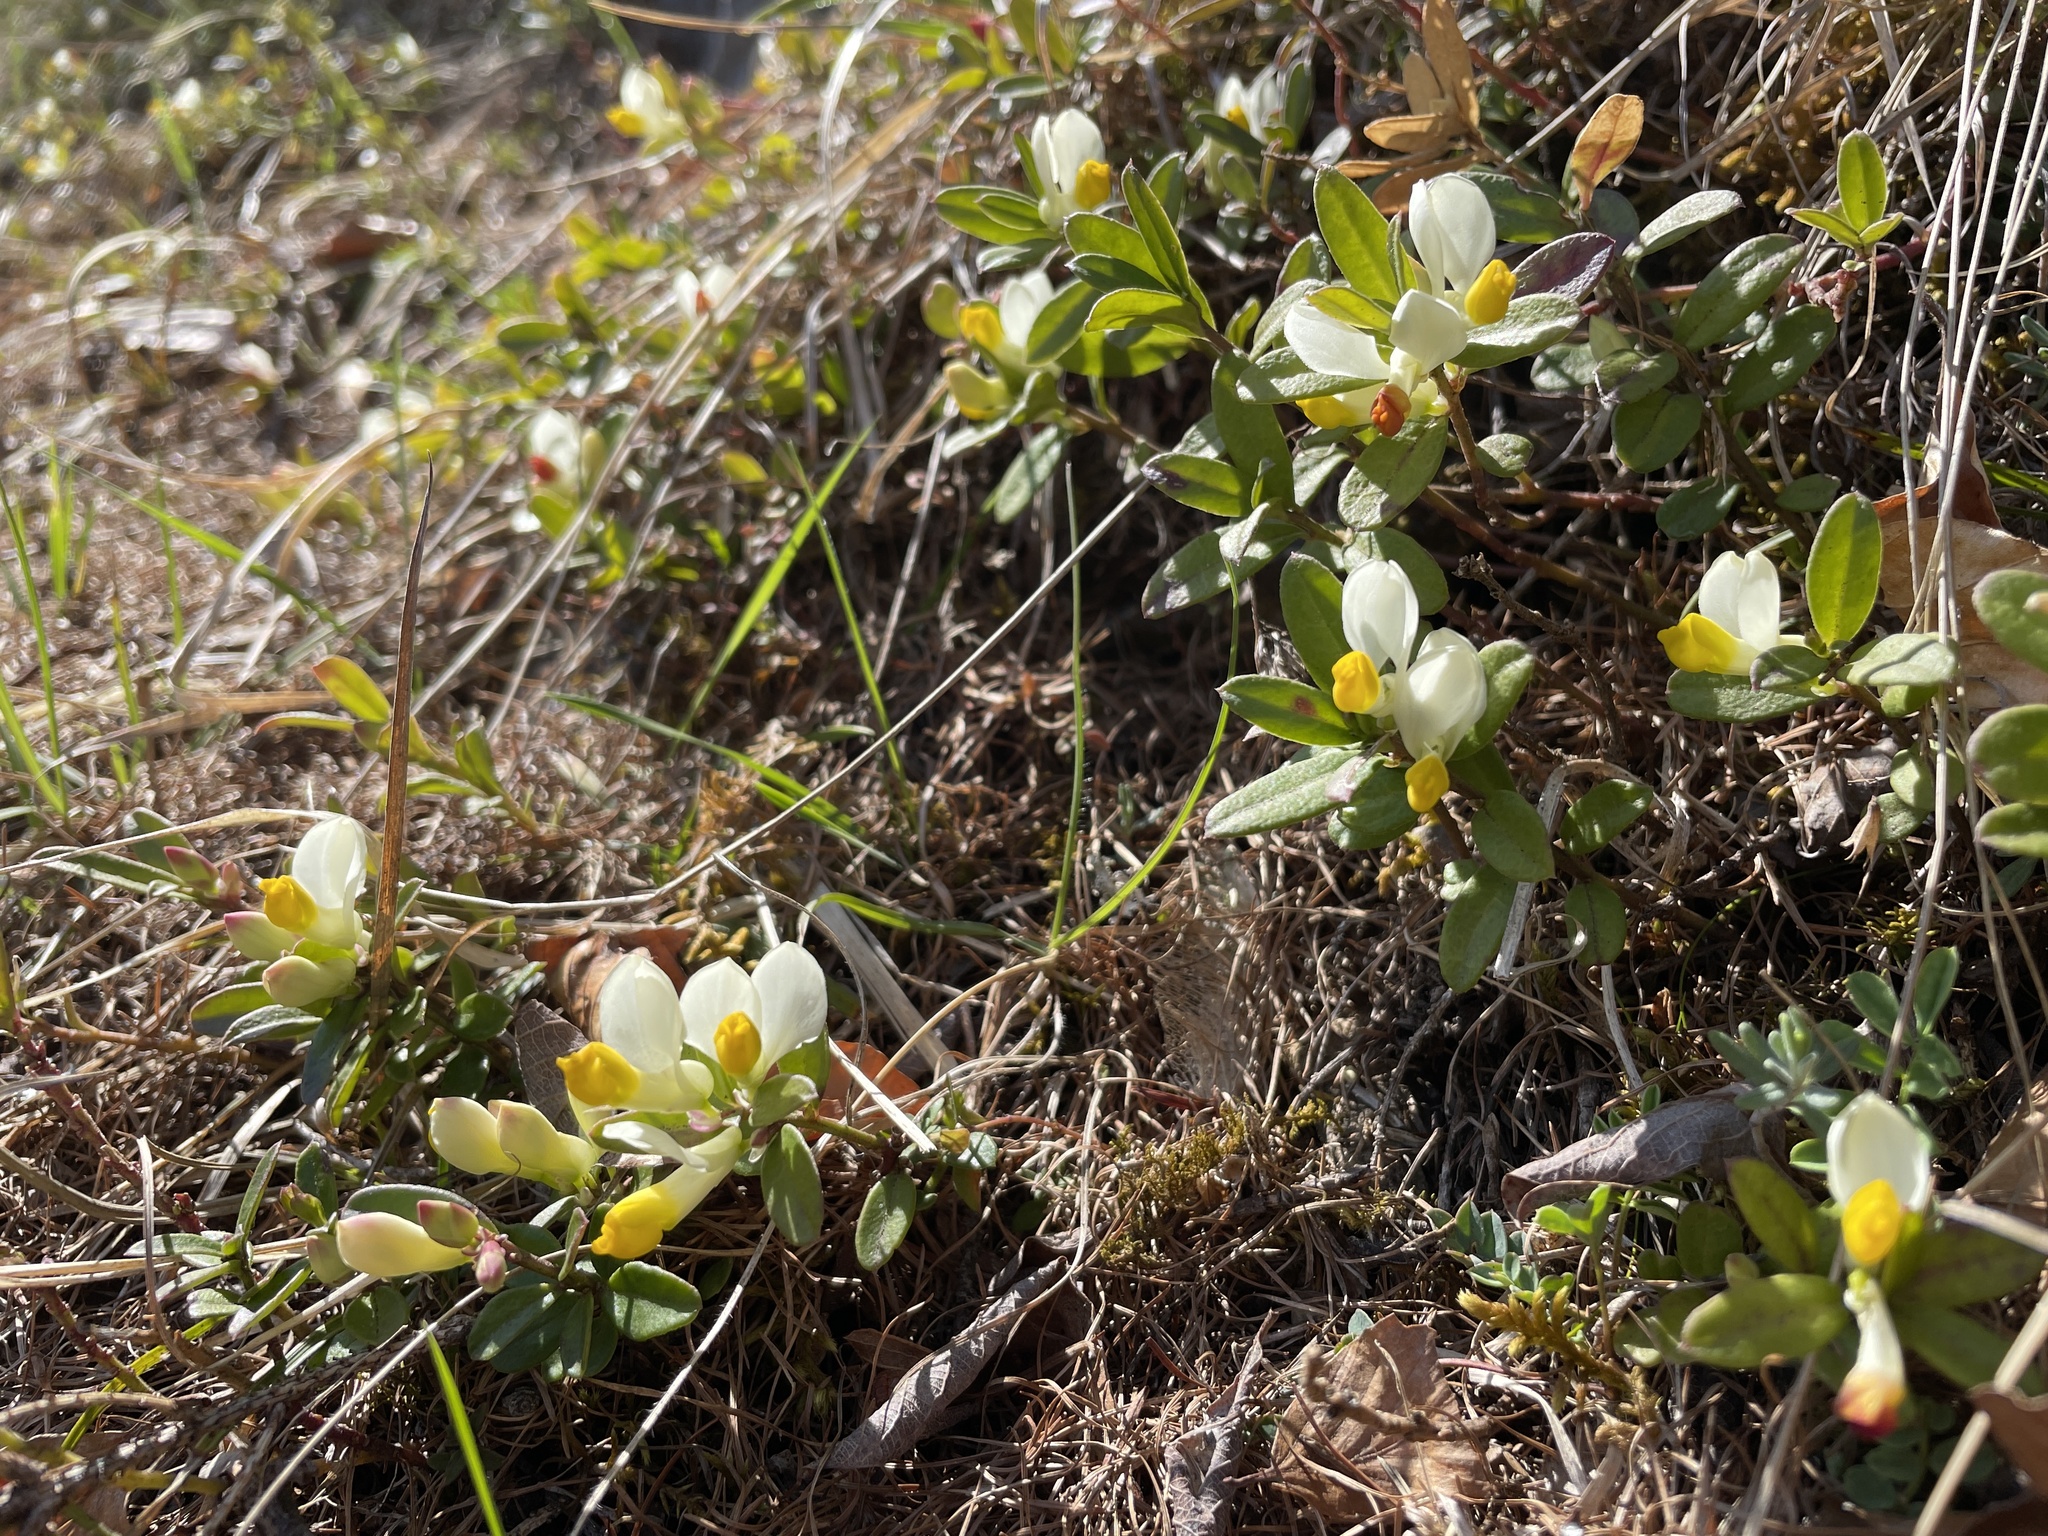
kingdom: Plantae
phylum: Tracheophyta
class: Magnoliopsida
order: Fabales
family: Polygalaceae
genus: Polygaloides
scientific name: Polygaloides chamaebuxus
